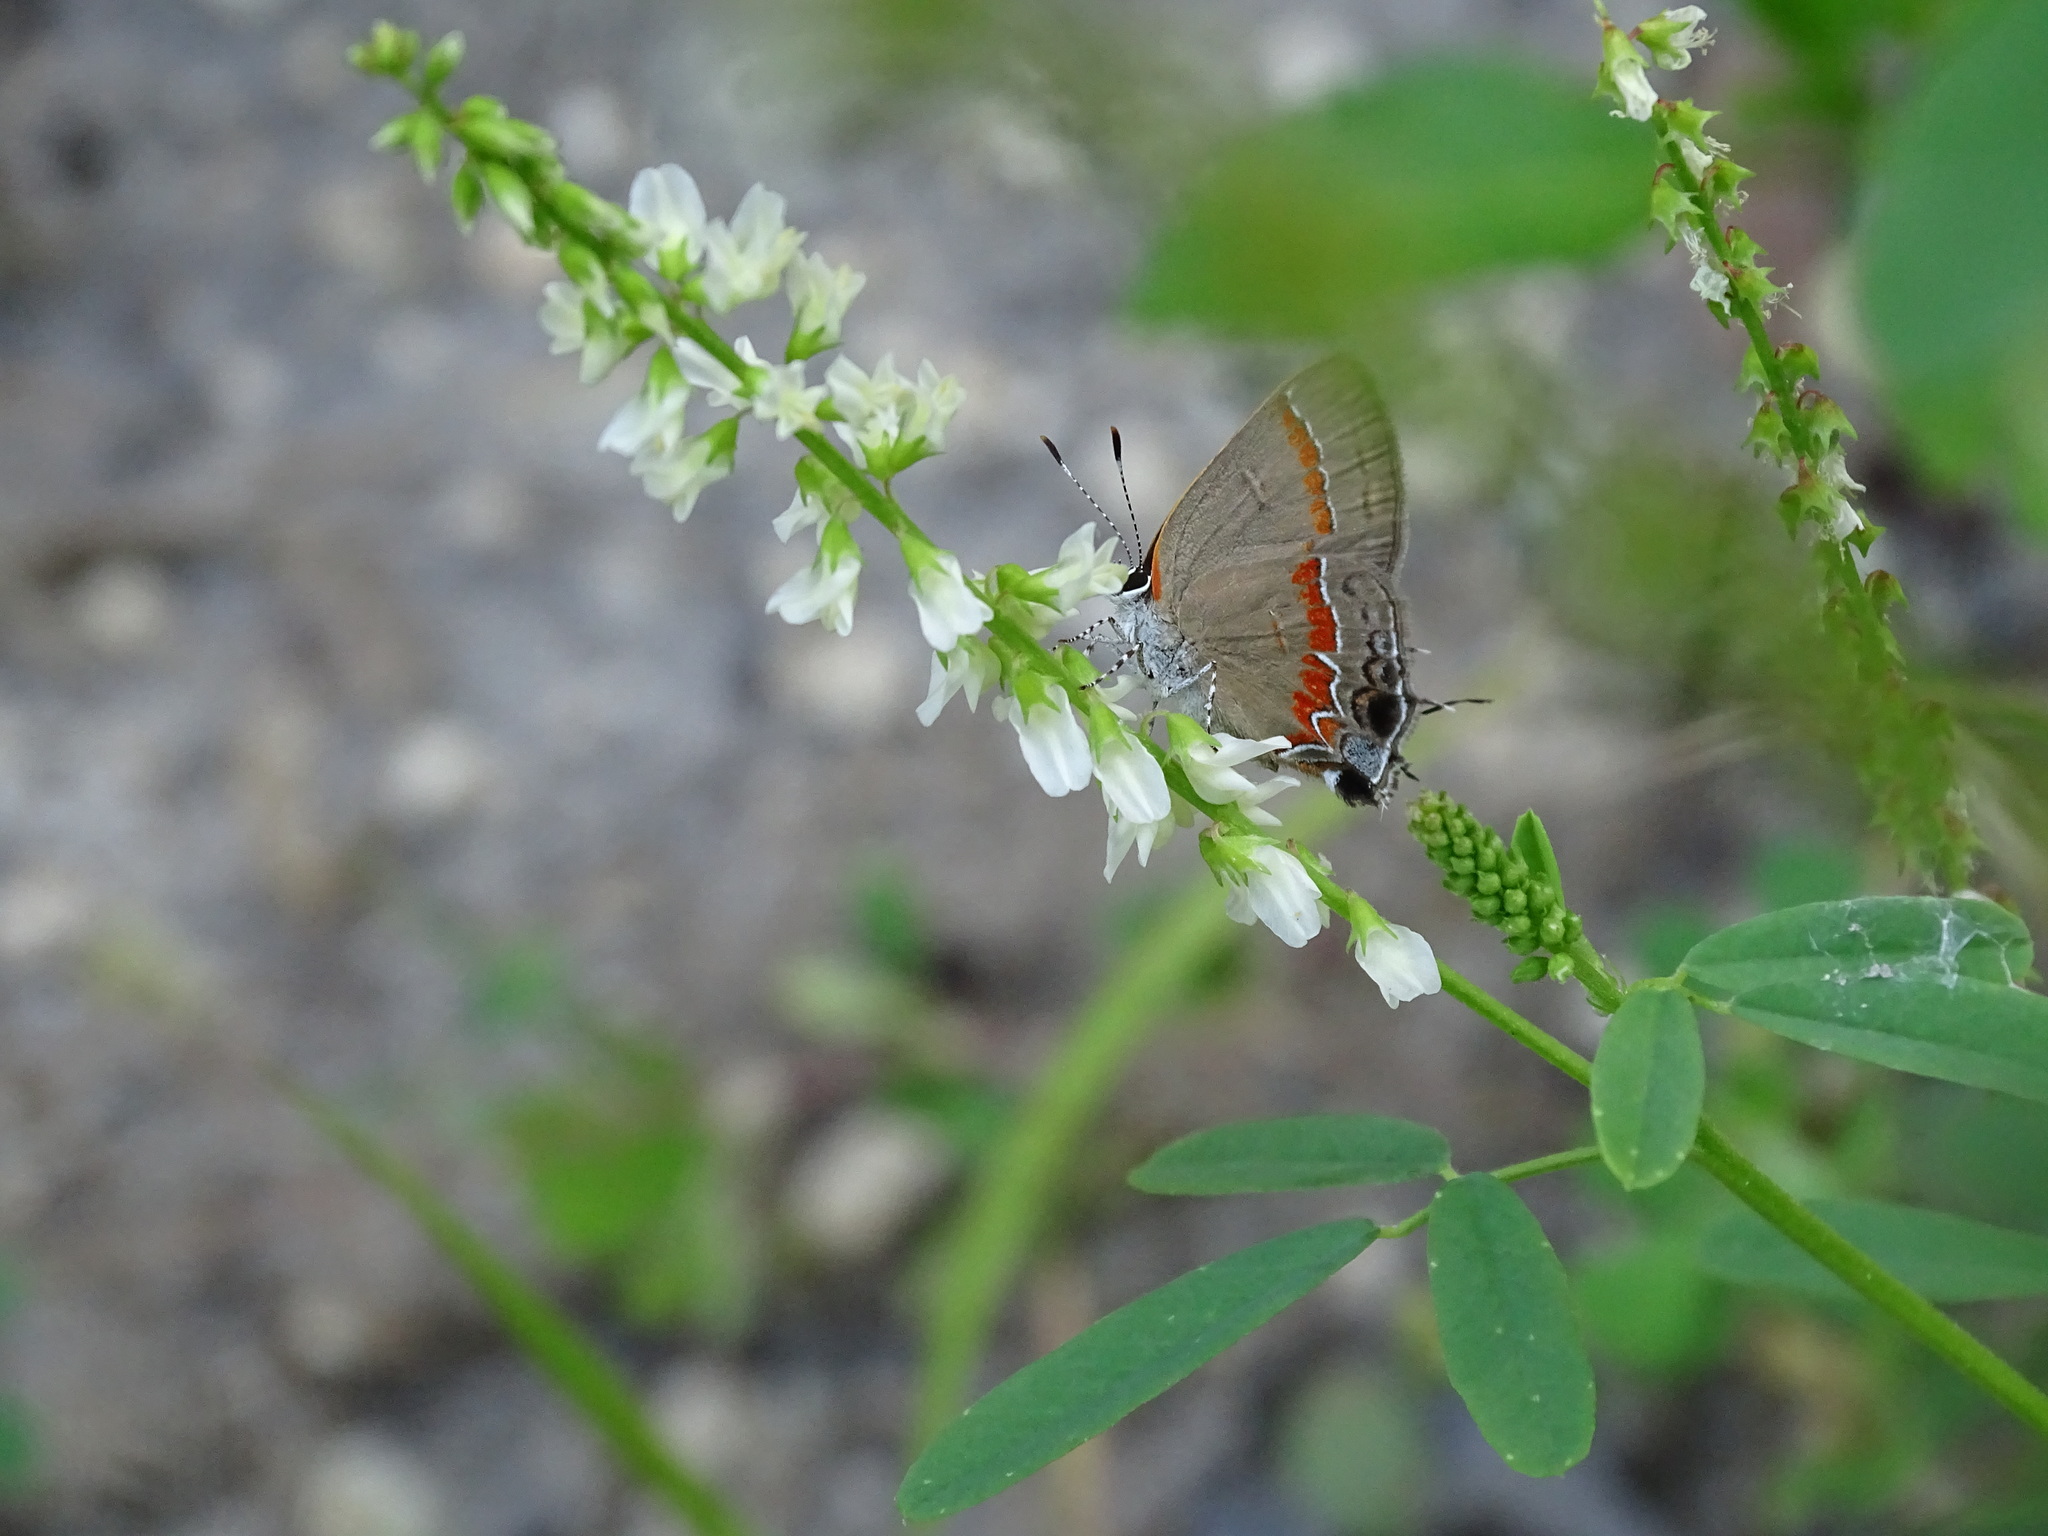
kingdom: Animalia
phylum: Arthropoda
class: Insecta
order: Lepidoptera
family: Lycaenidae
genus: Calycopis
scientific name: Calycopis cecrops
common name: Red-banded hairstreak
